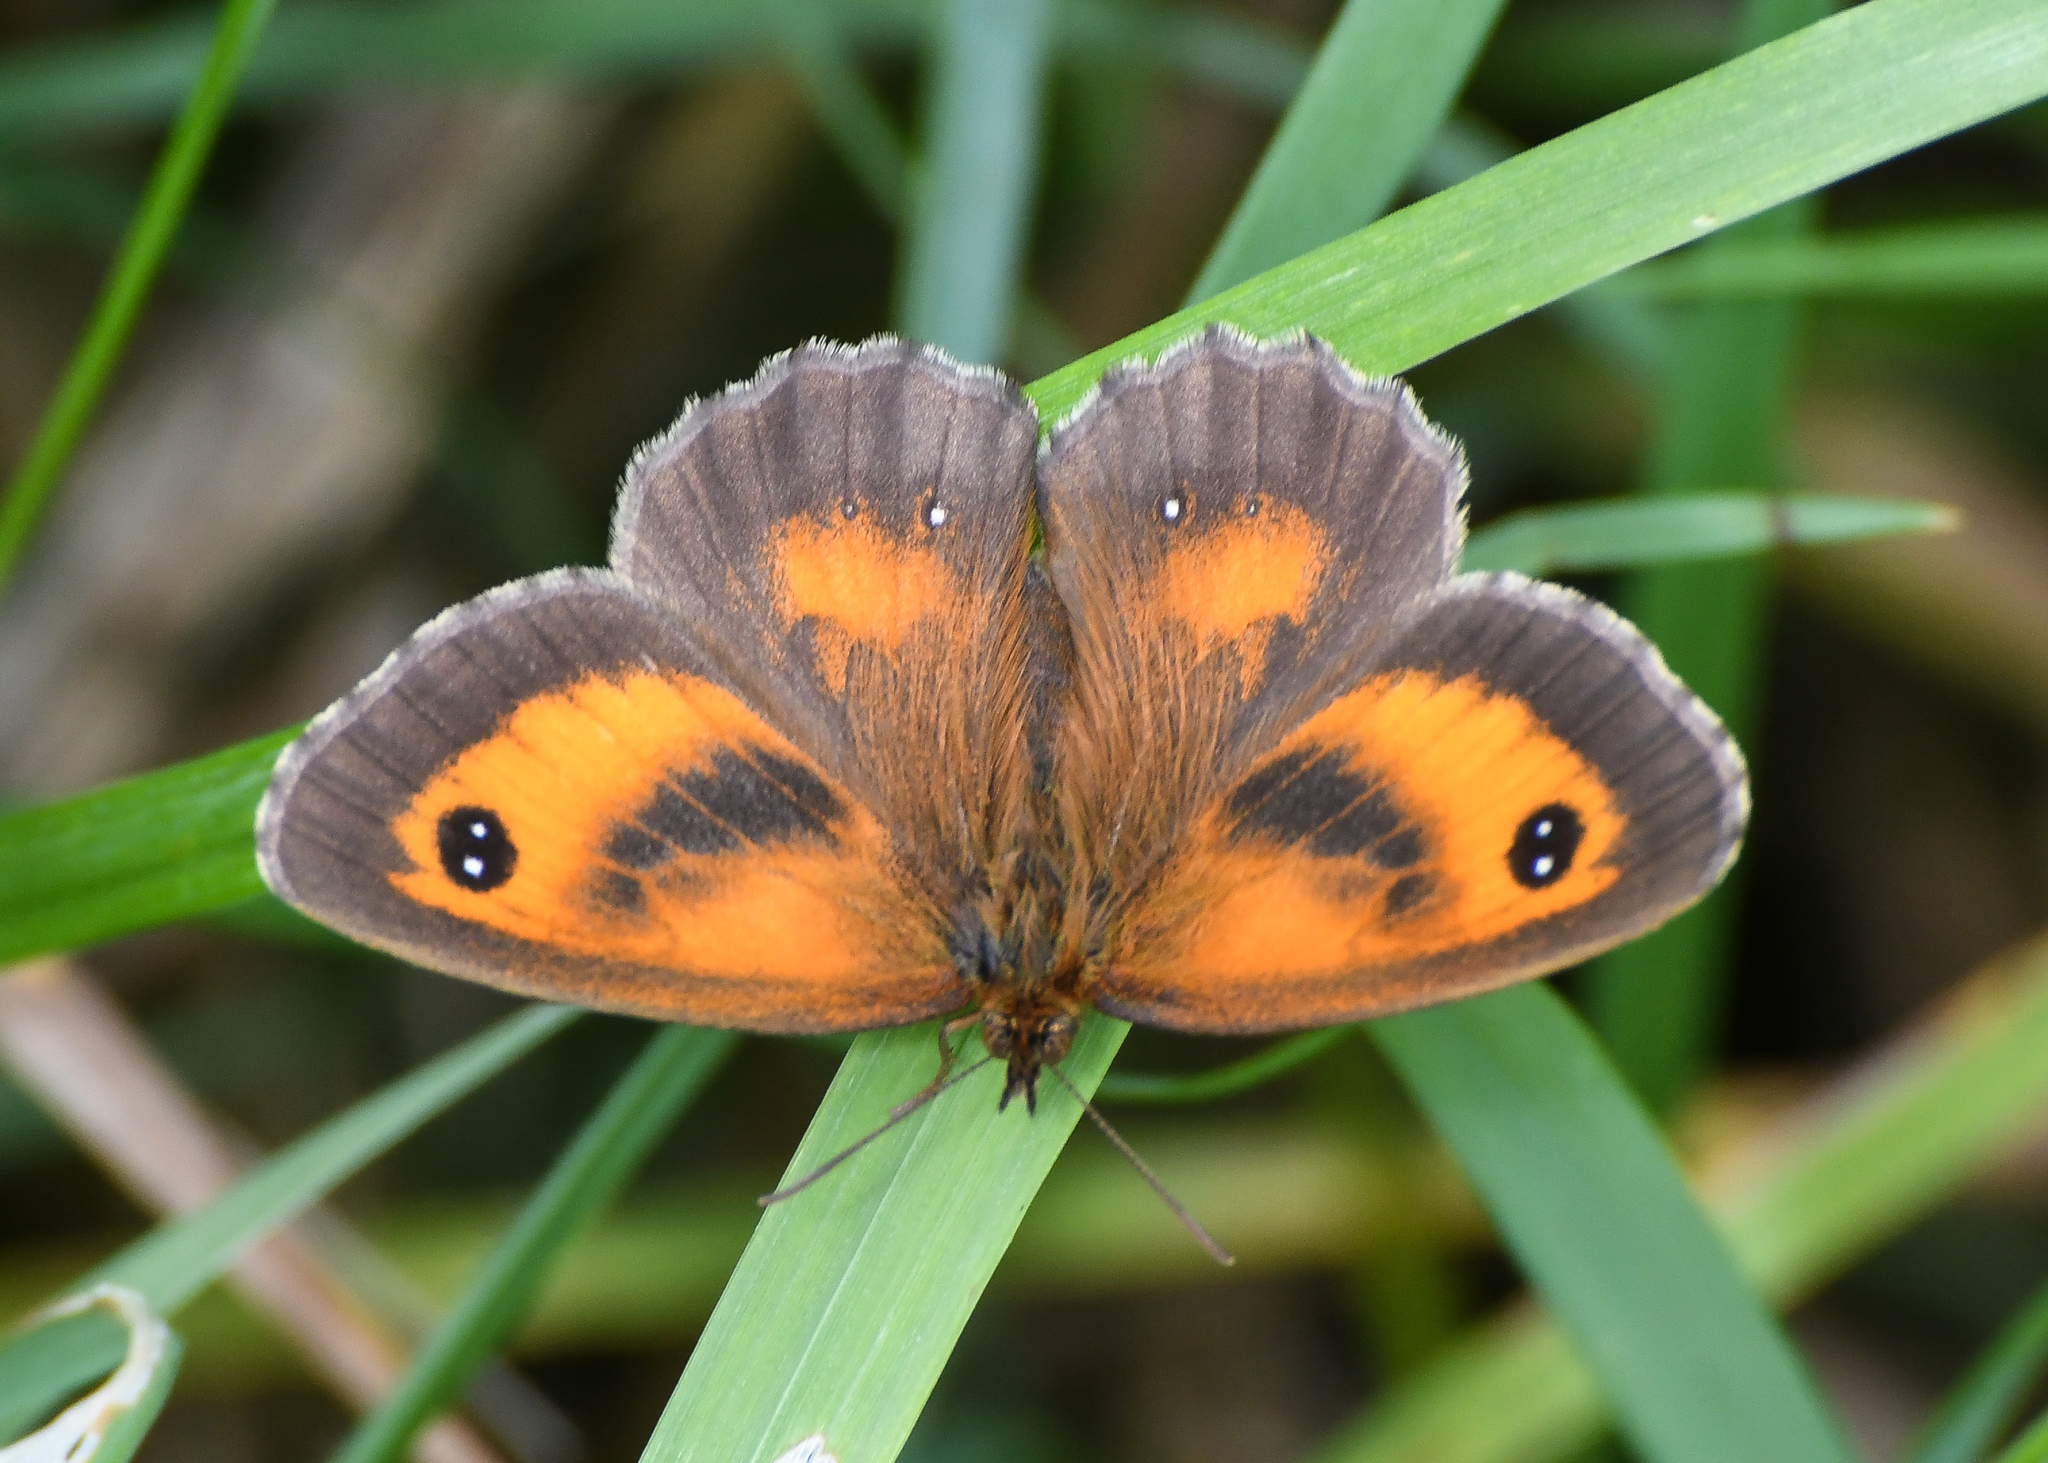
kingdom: Animalia
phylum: Arthropoda
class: Insecta
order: Lepidoptera
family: Nymphalidae
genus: Pyronia
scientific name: Pyronia tithonus
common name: Gatekeeper
